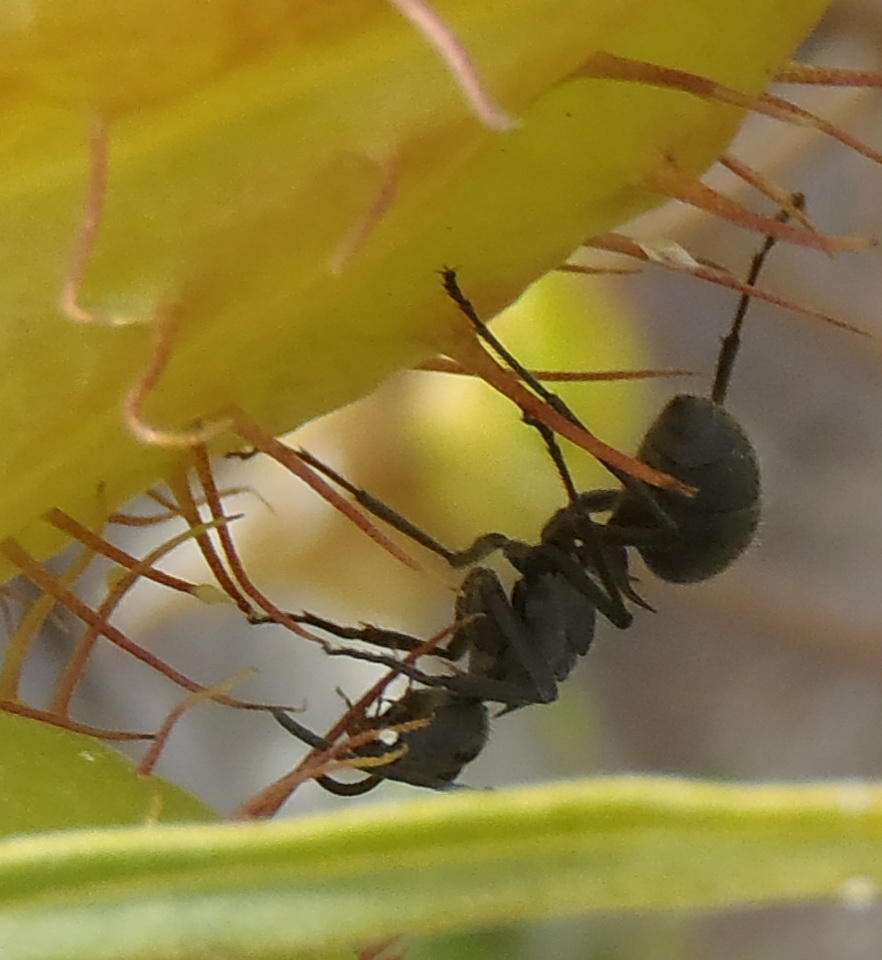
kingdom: Animalia
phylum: Arthropoda
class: Insecta
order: Hymenoptera
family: Formicidae
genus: Polyrhachis
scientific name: Polyrhachis schistacea
